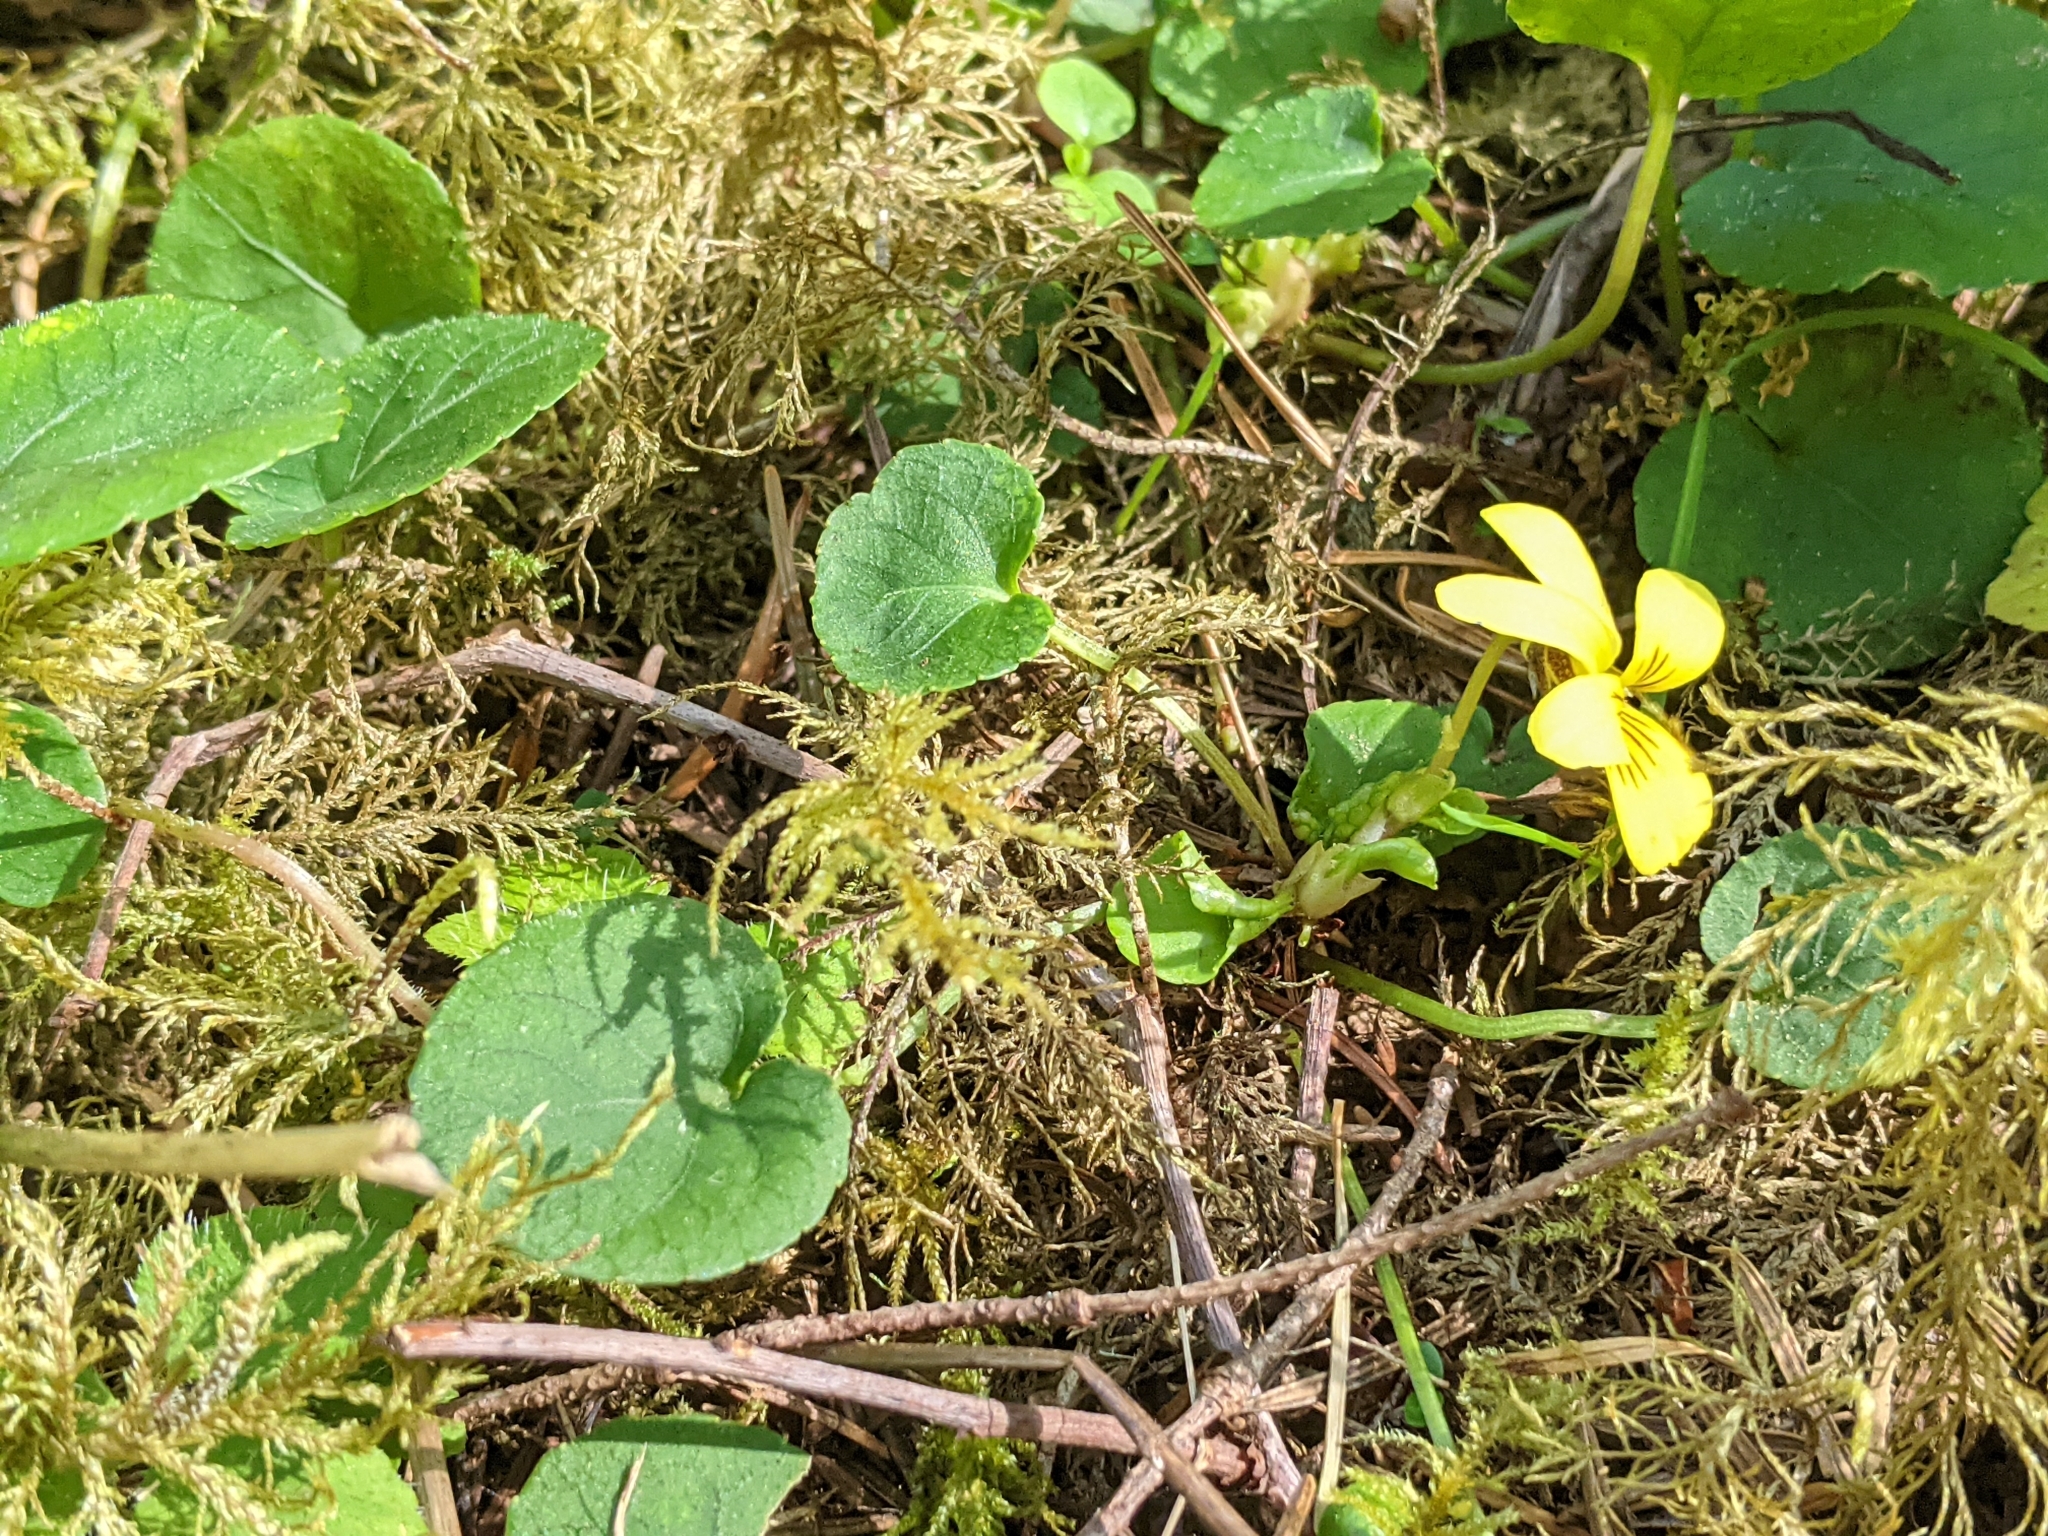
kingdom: Plantae
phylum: Tracheophyta
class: Magnoliopsida
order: Malpighiales
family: Violaceae
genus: Viola
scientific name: Viola sempervirens
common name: Evergreen violet
